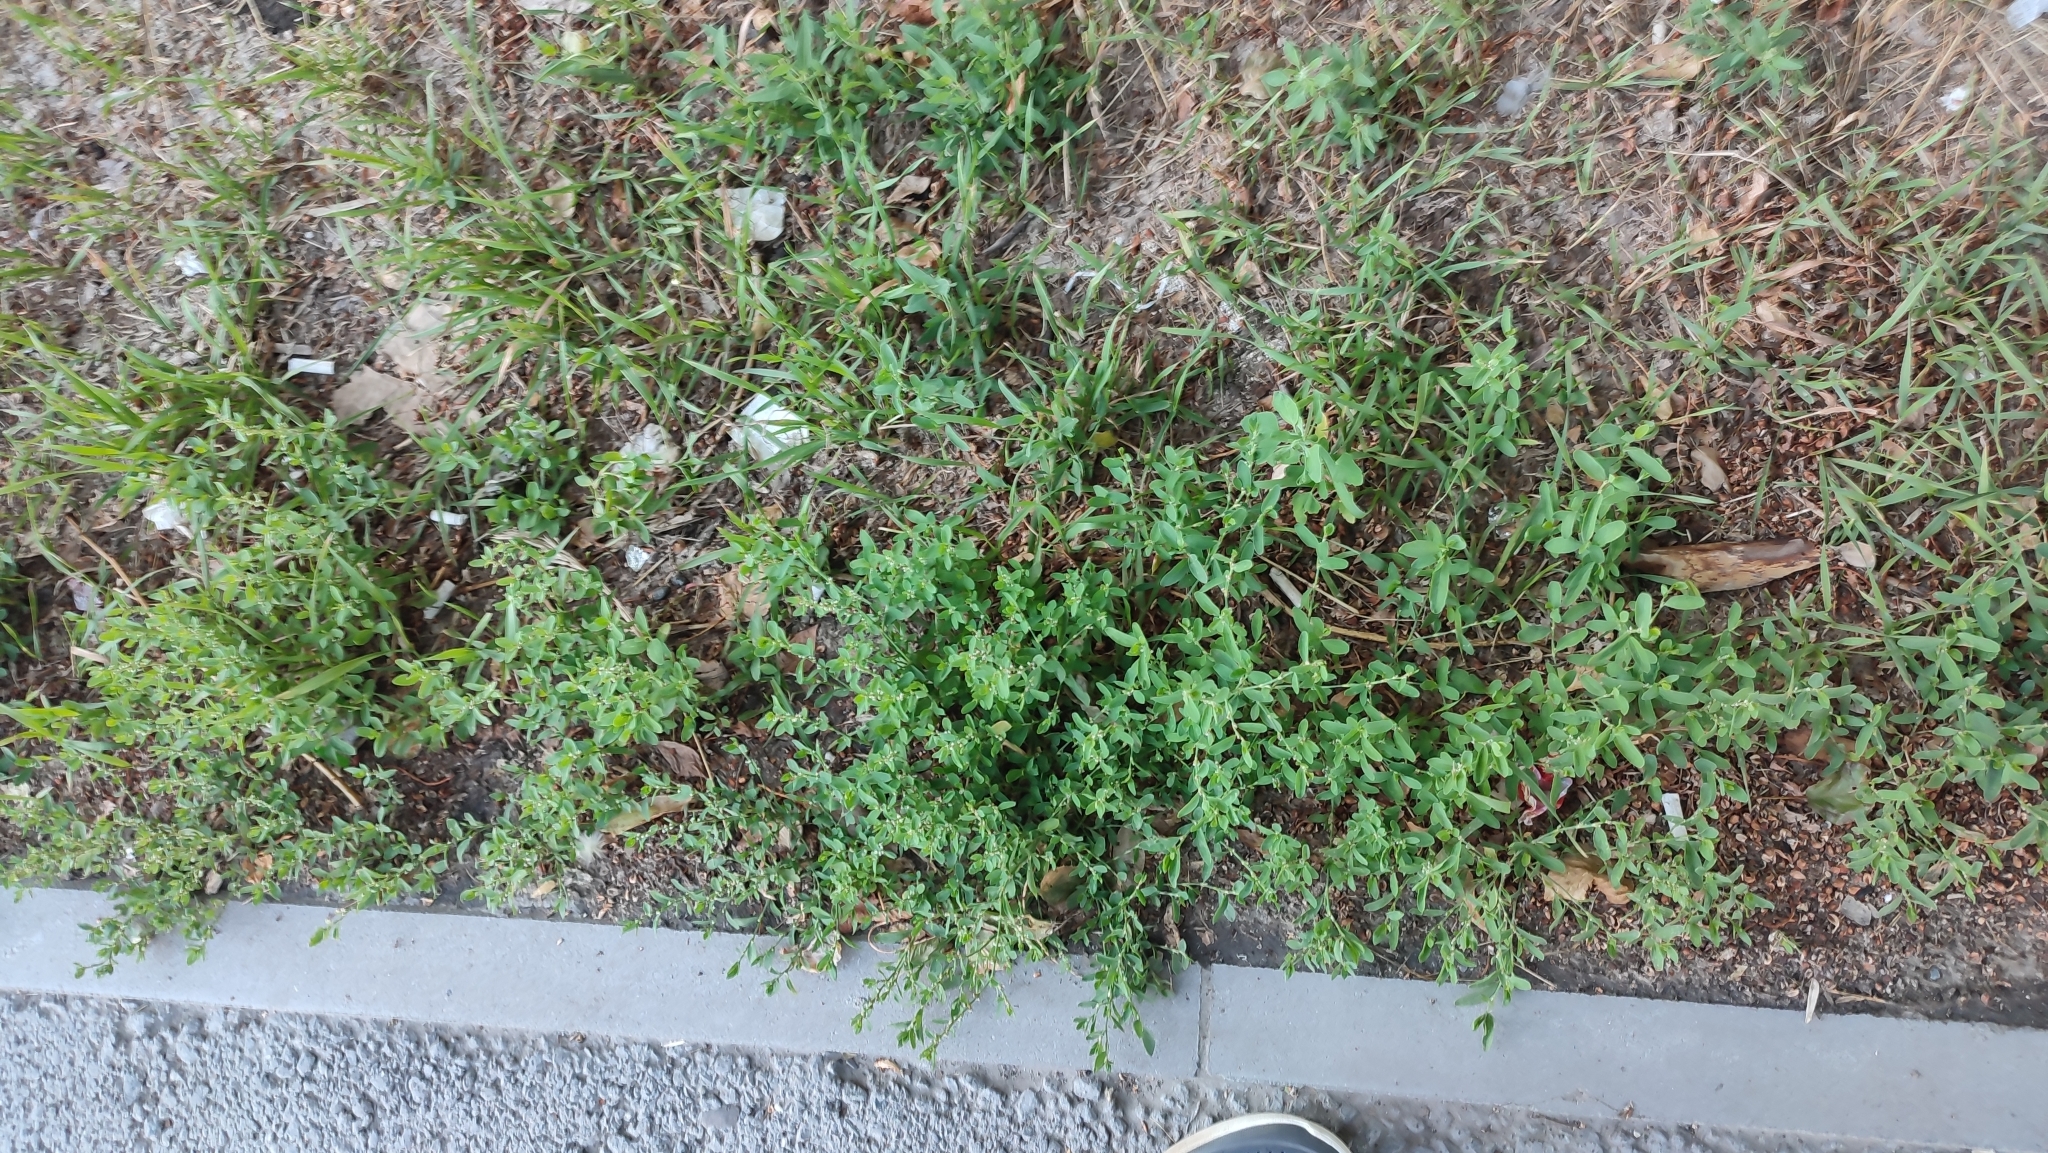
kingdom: Plantae
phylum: Tracheophyta
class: Magnoliopsida
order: Caryophyllales
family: Polygonaceae
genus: Polygonum
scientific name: Polygonum aviculare
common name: Prostrate knotweed
